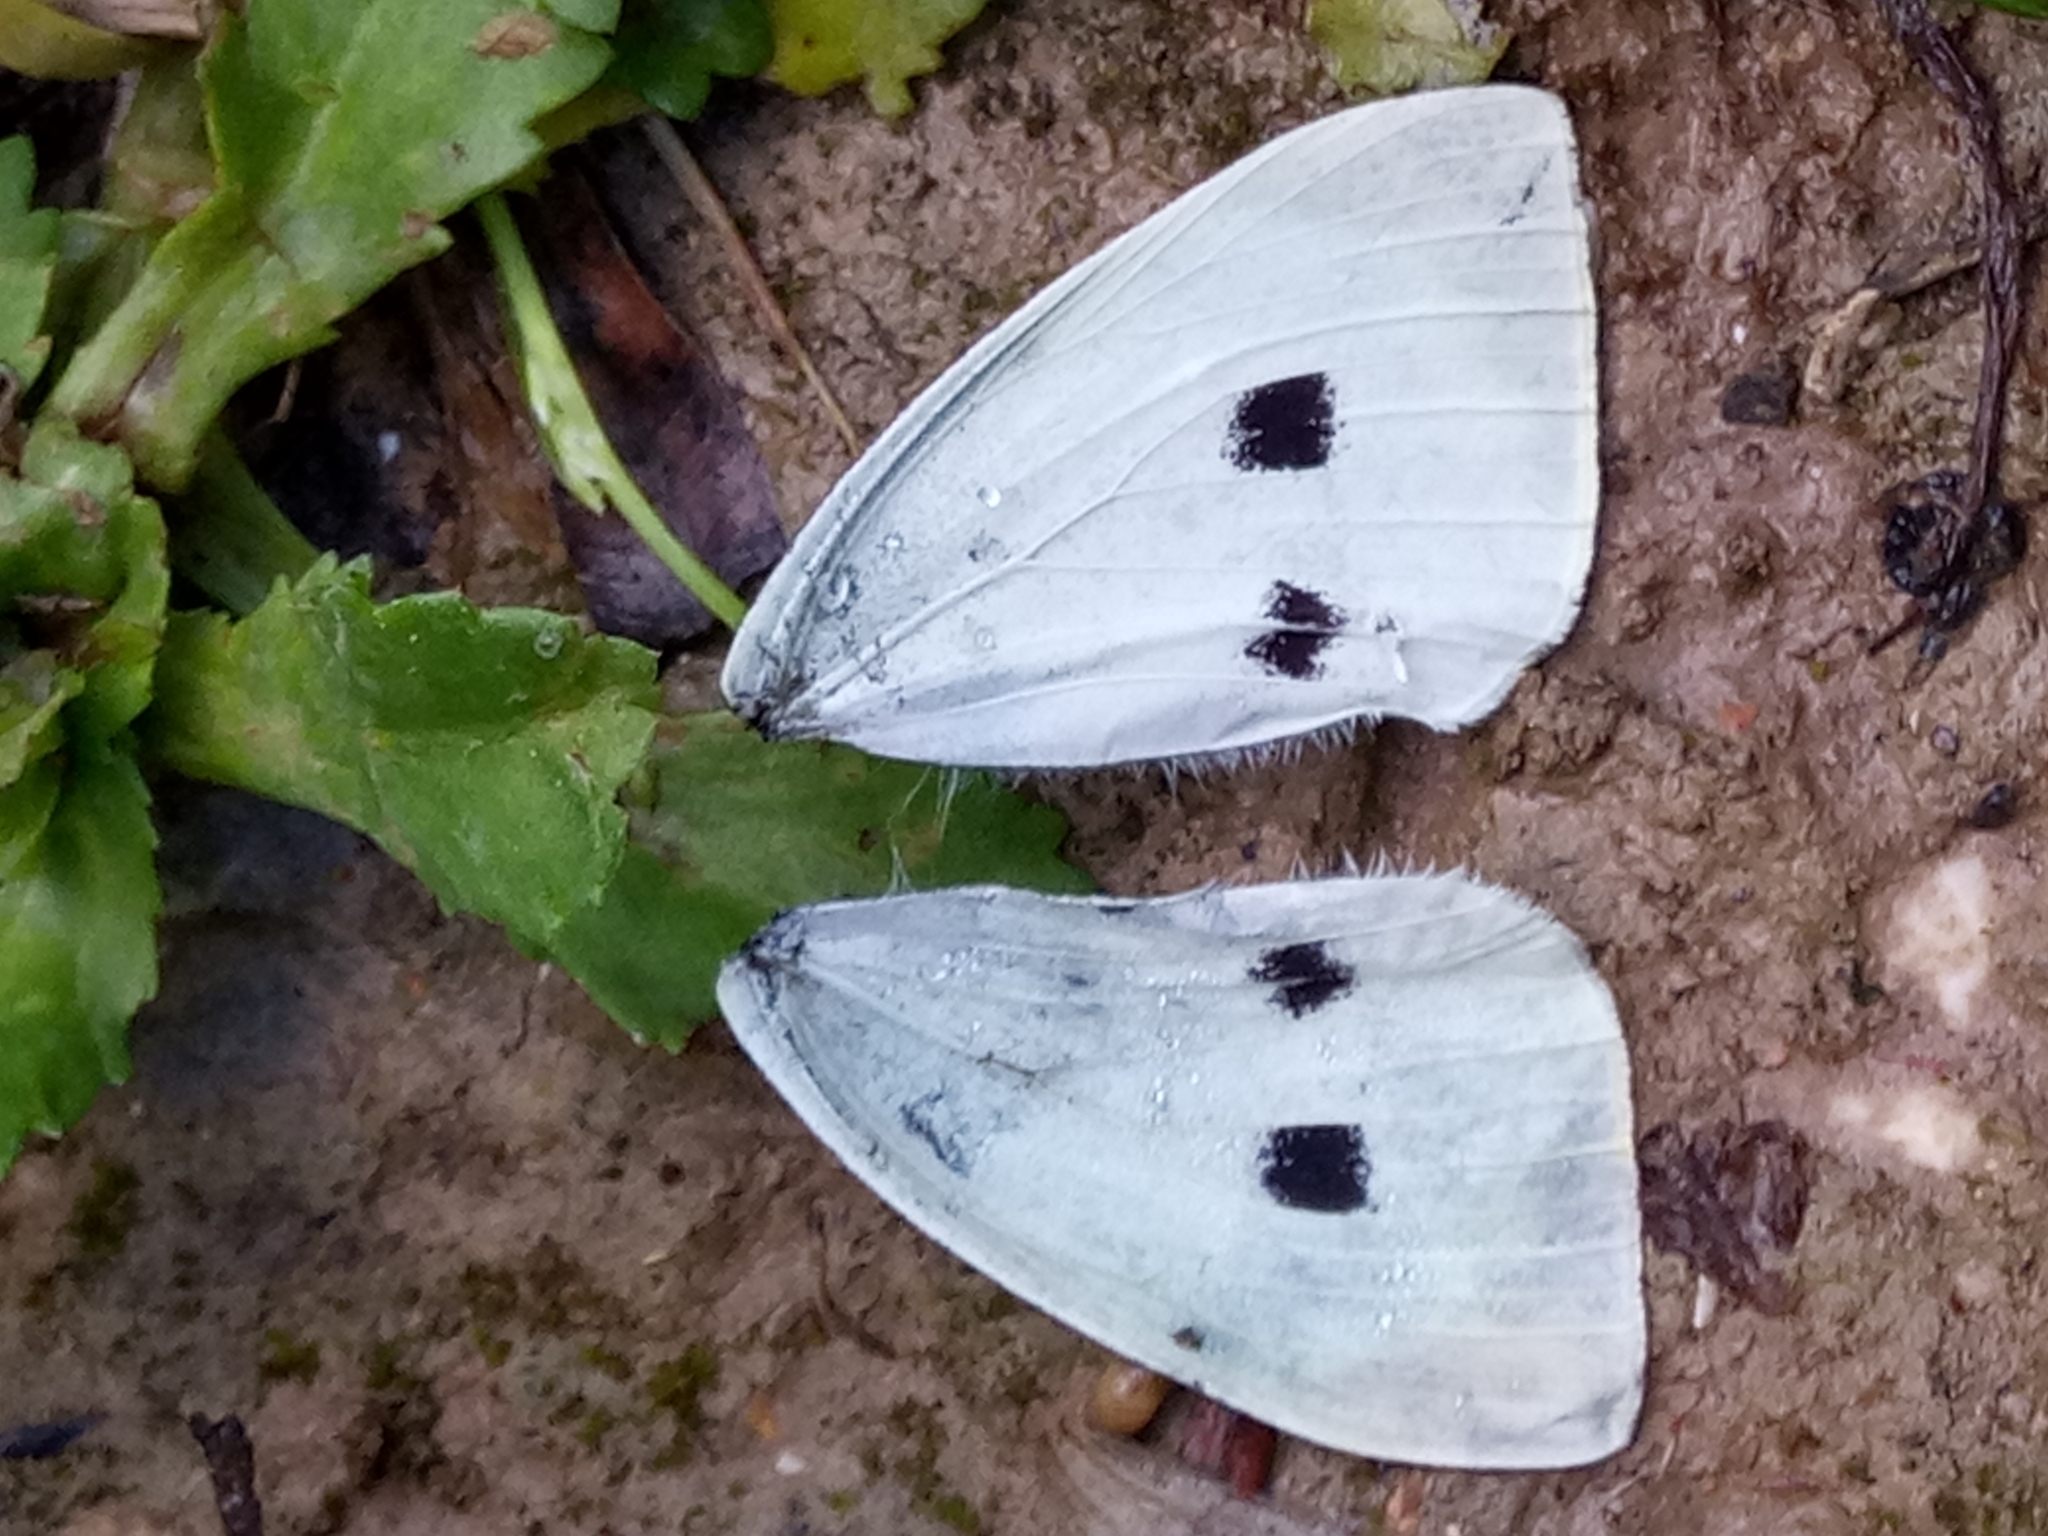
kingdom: Animalia
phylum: Arthropoda
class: Insecta
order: Lepidoptera
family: Pieridae
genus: Pieris
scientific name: Pieris brassicae
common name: Large white
